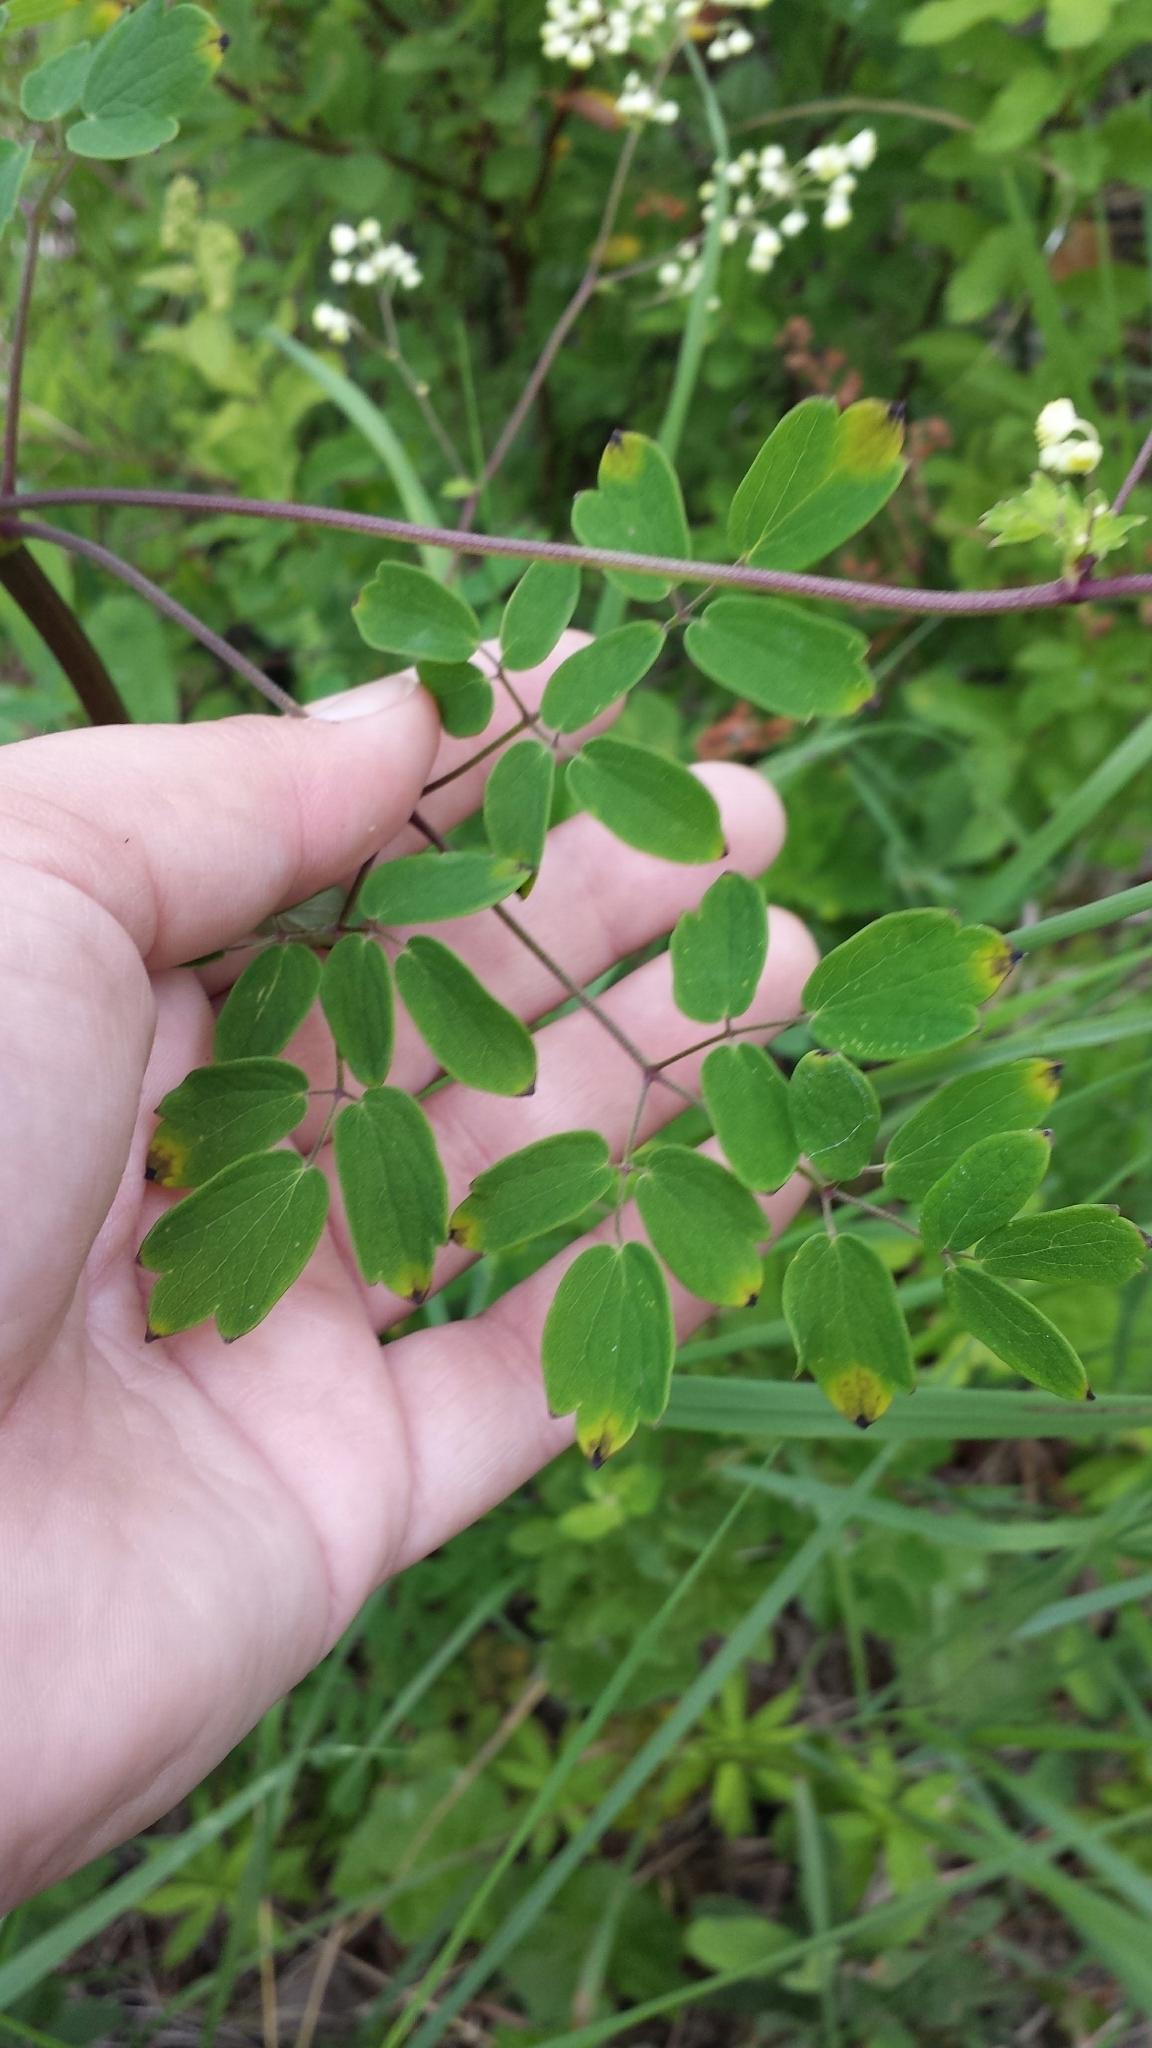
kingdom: Plantae
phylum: Tracheophyta
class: Magnoliopsida
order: Ranunculales
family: Ranunculaceae
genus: Thalictrum
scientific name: Thalictrum pubescens
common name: King-of-the-meadow
